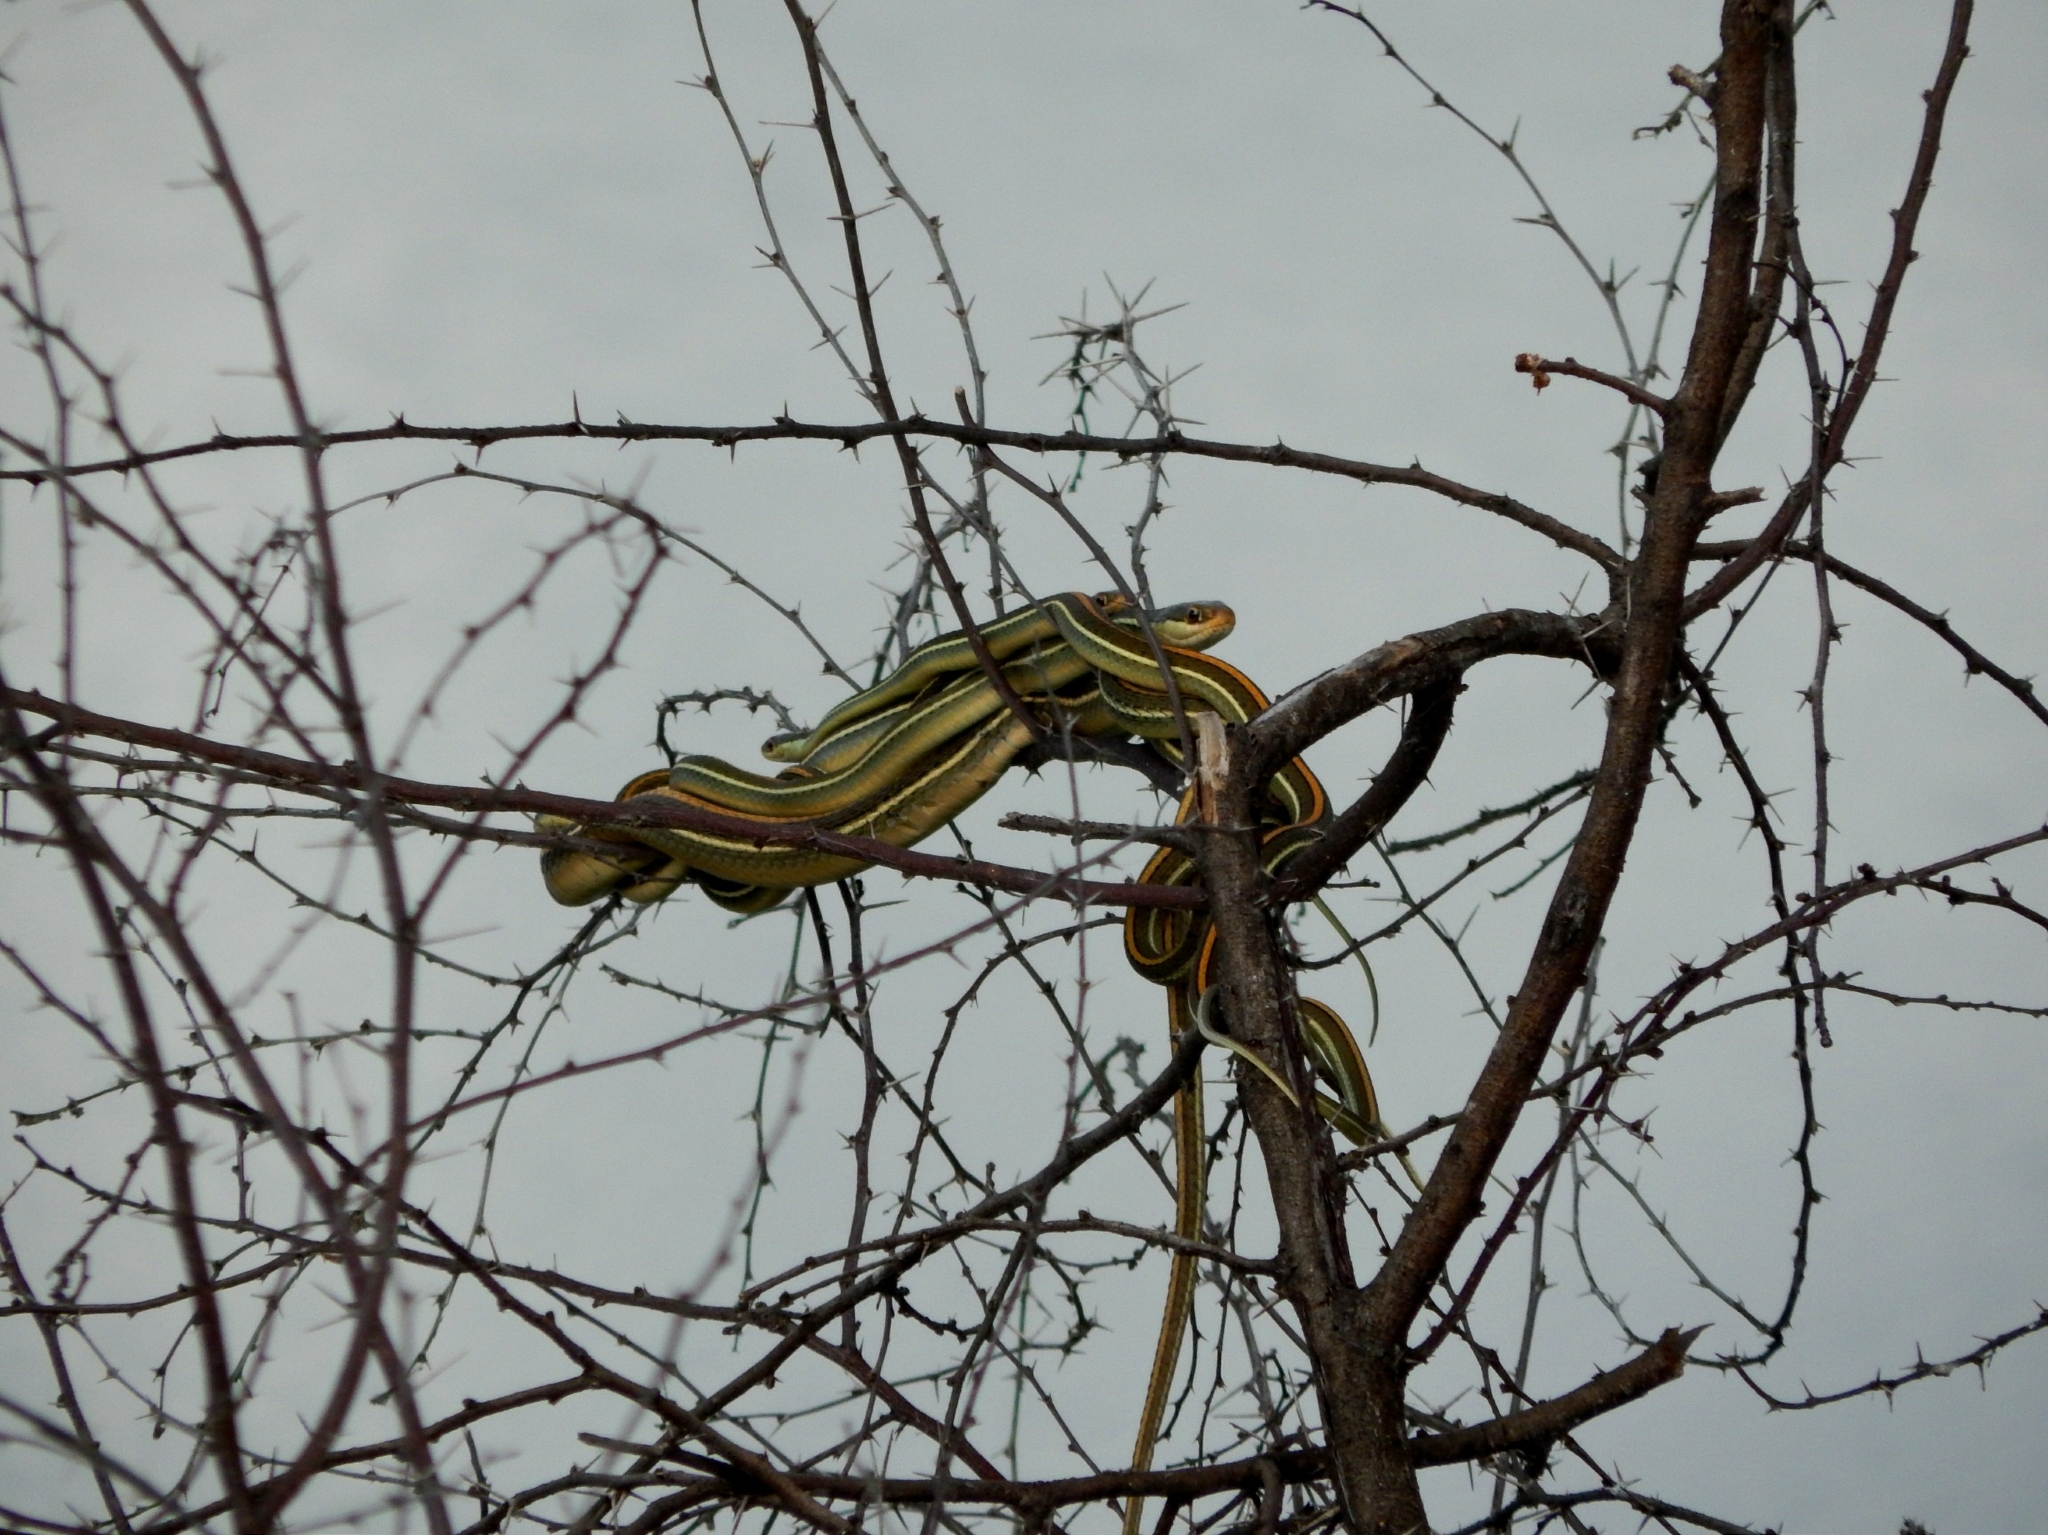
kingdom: Animalia
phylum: Chordata
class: Squamata
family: Colubridae
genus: Thamnophis
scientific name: Thamnophis proximus
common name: Western ribbon snake
